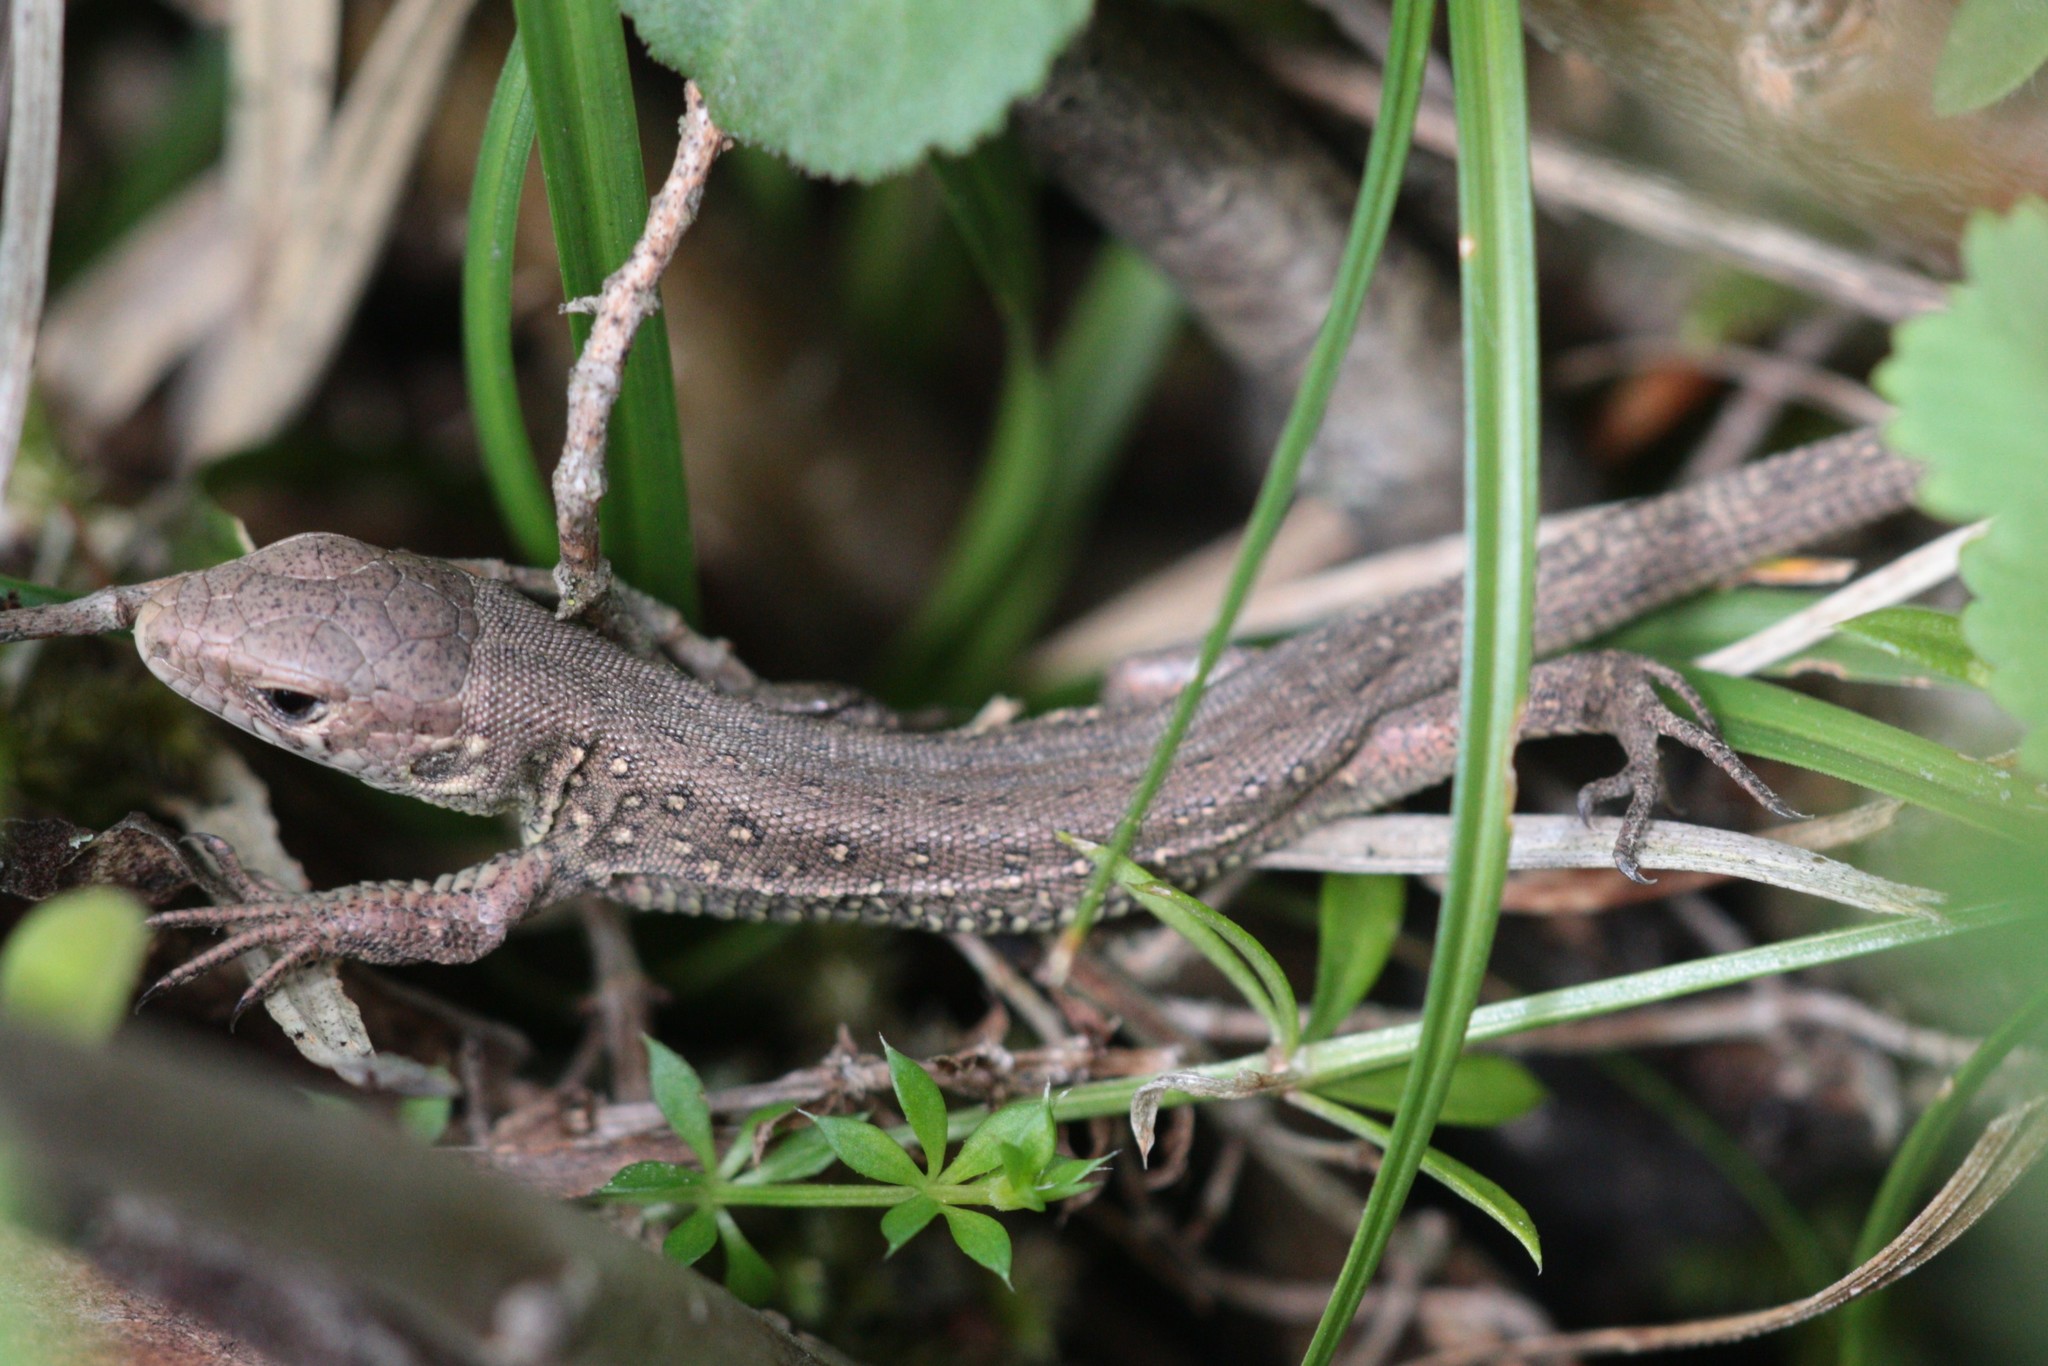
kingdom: Animalia
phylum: Chordata
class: Squamata
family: Lacertidae
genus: Lacerta
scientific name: Lacerta agilis
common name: Sand lizard
